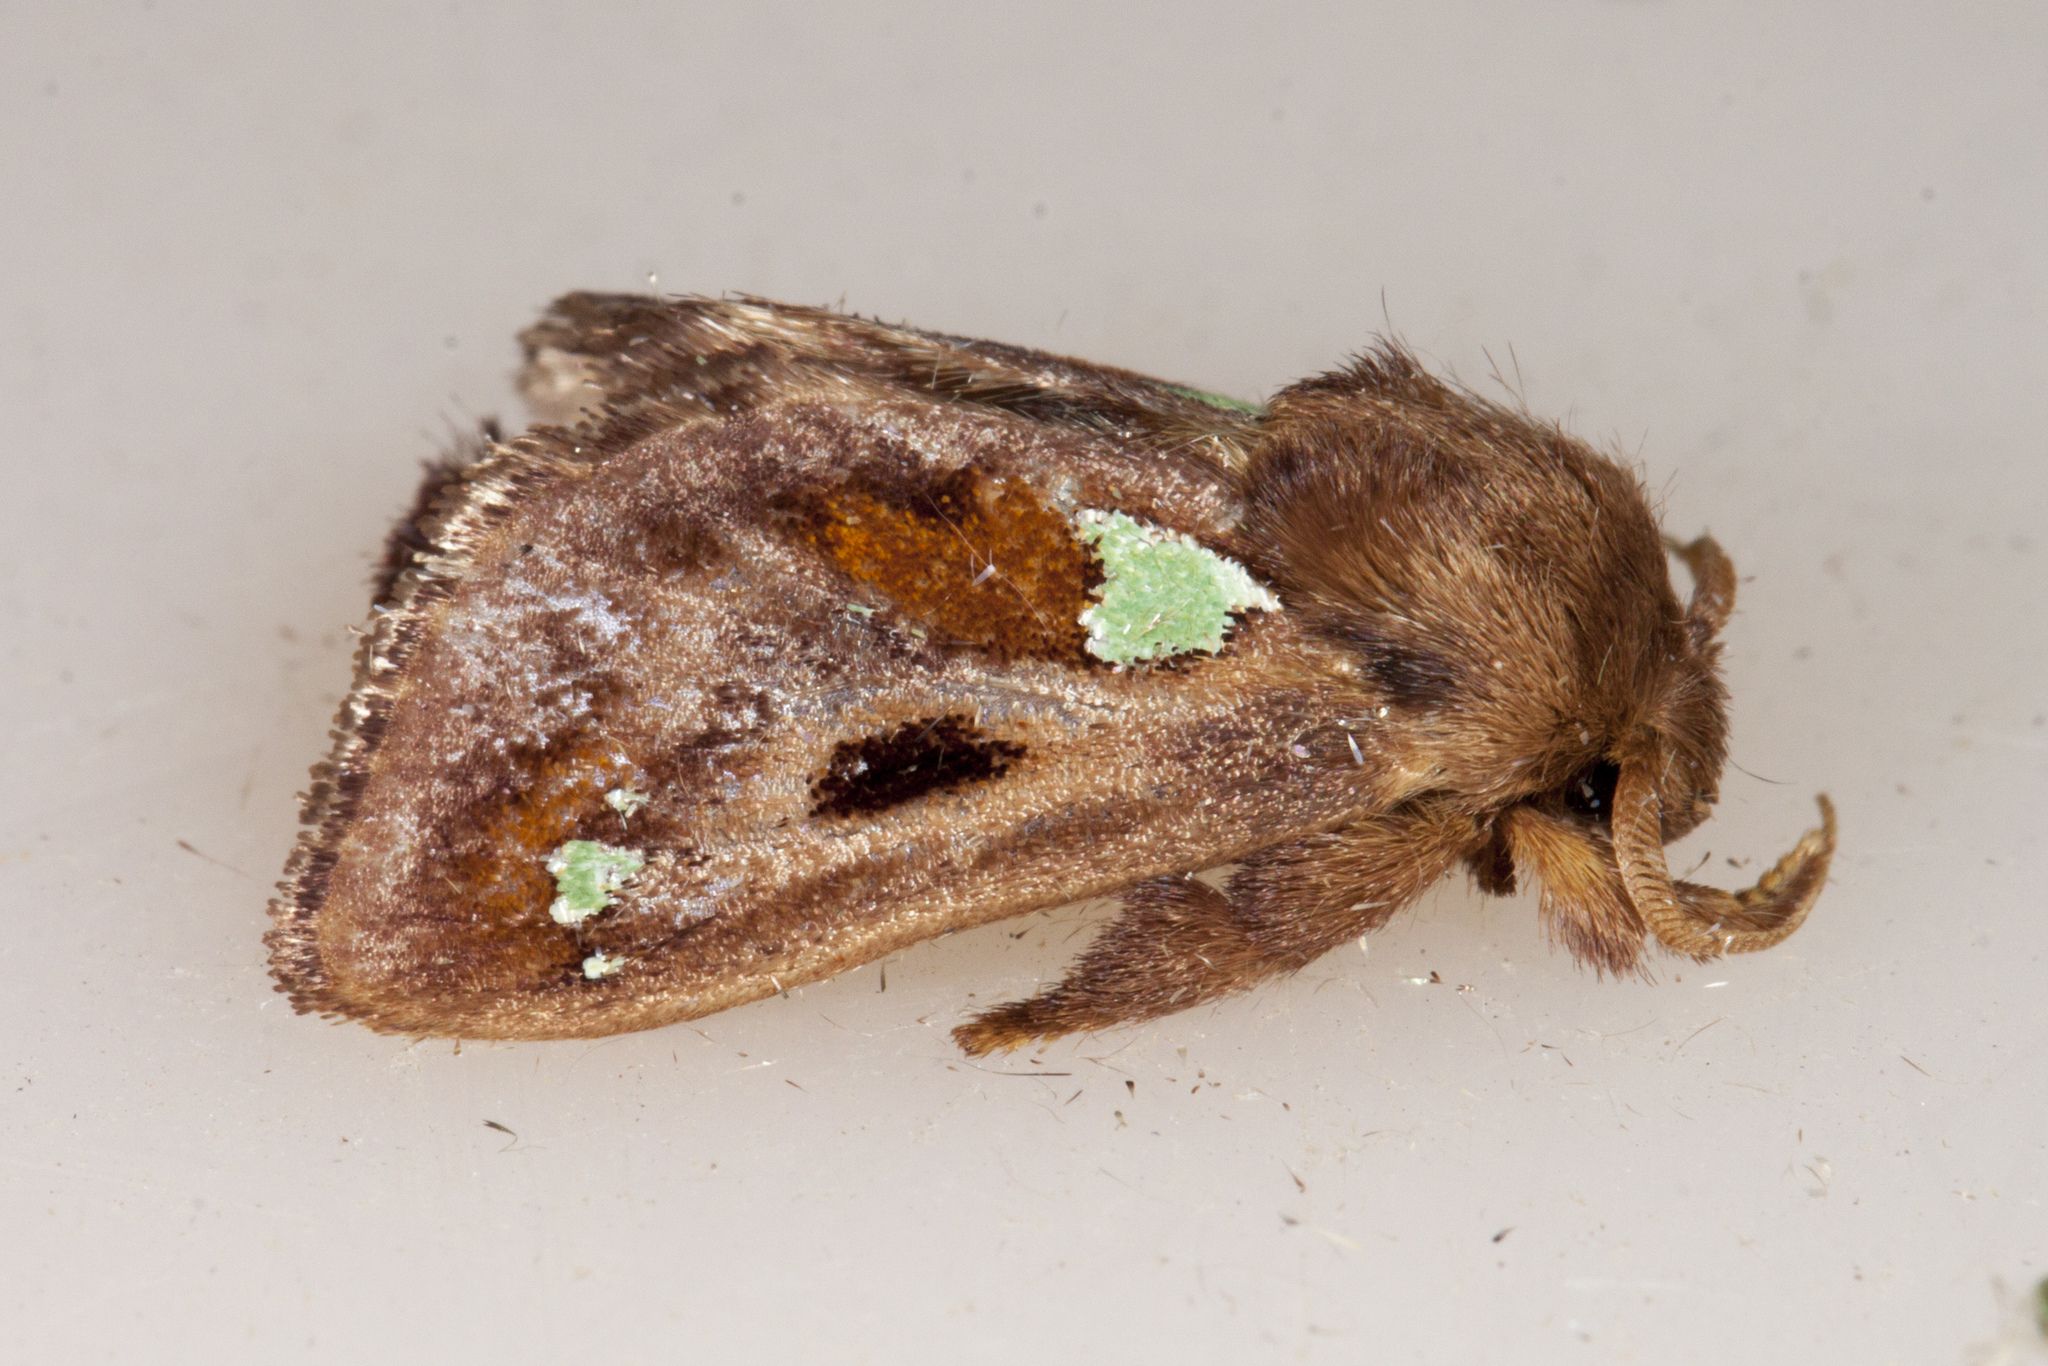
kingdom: Animalia
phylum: Arthropoda
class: Insecta
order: Lepidoptera
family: Limacodidae
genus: Euclea
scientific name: Euclea delphinii
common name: Spiny oak-slug moth
